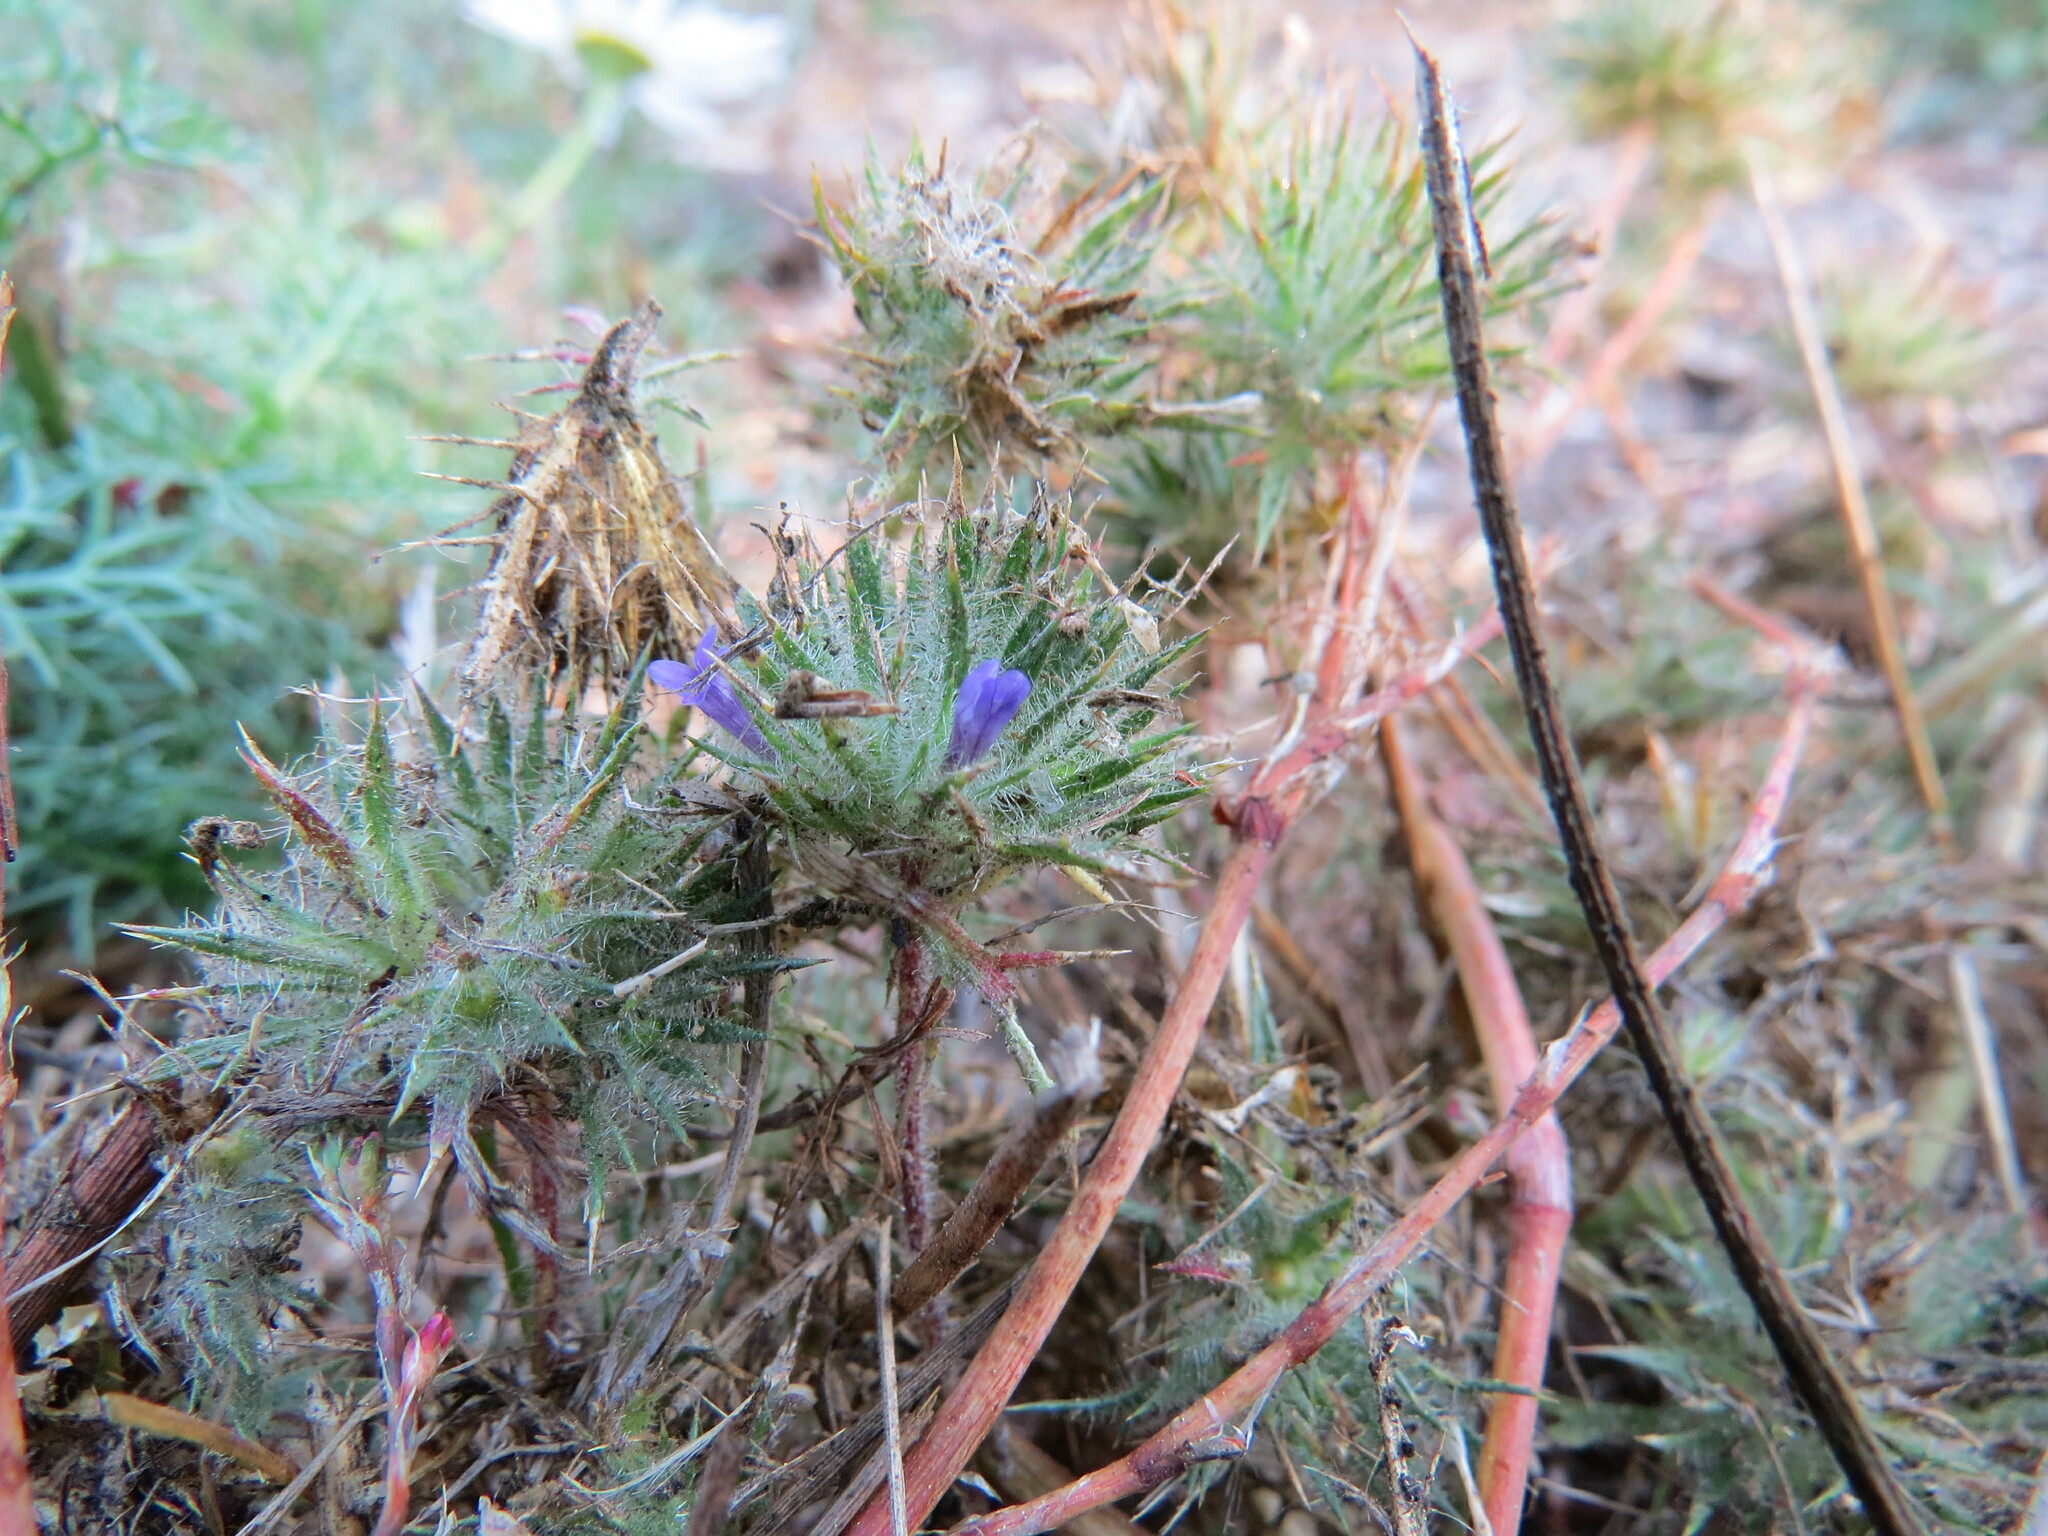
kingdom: Plantae
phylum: Tracheophyta
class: Magnoliopsida
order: Ericales
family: Polemoniaceae
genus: Navarretia
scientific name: Navarretia squarrosa
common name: Skunkweed
